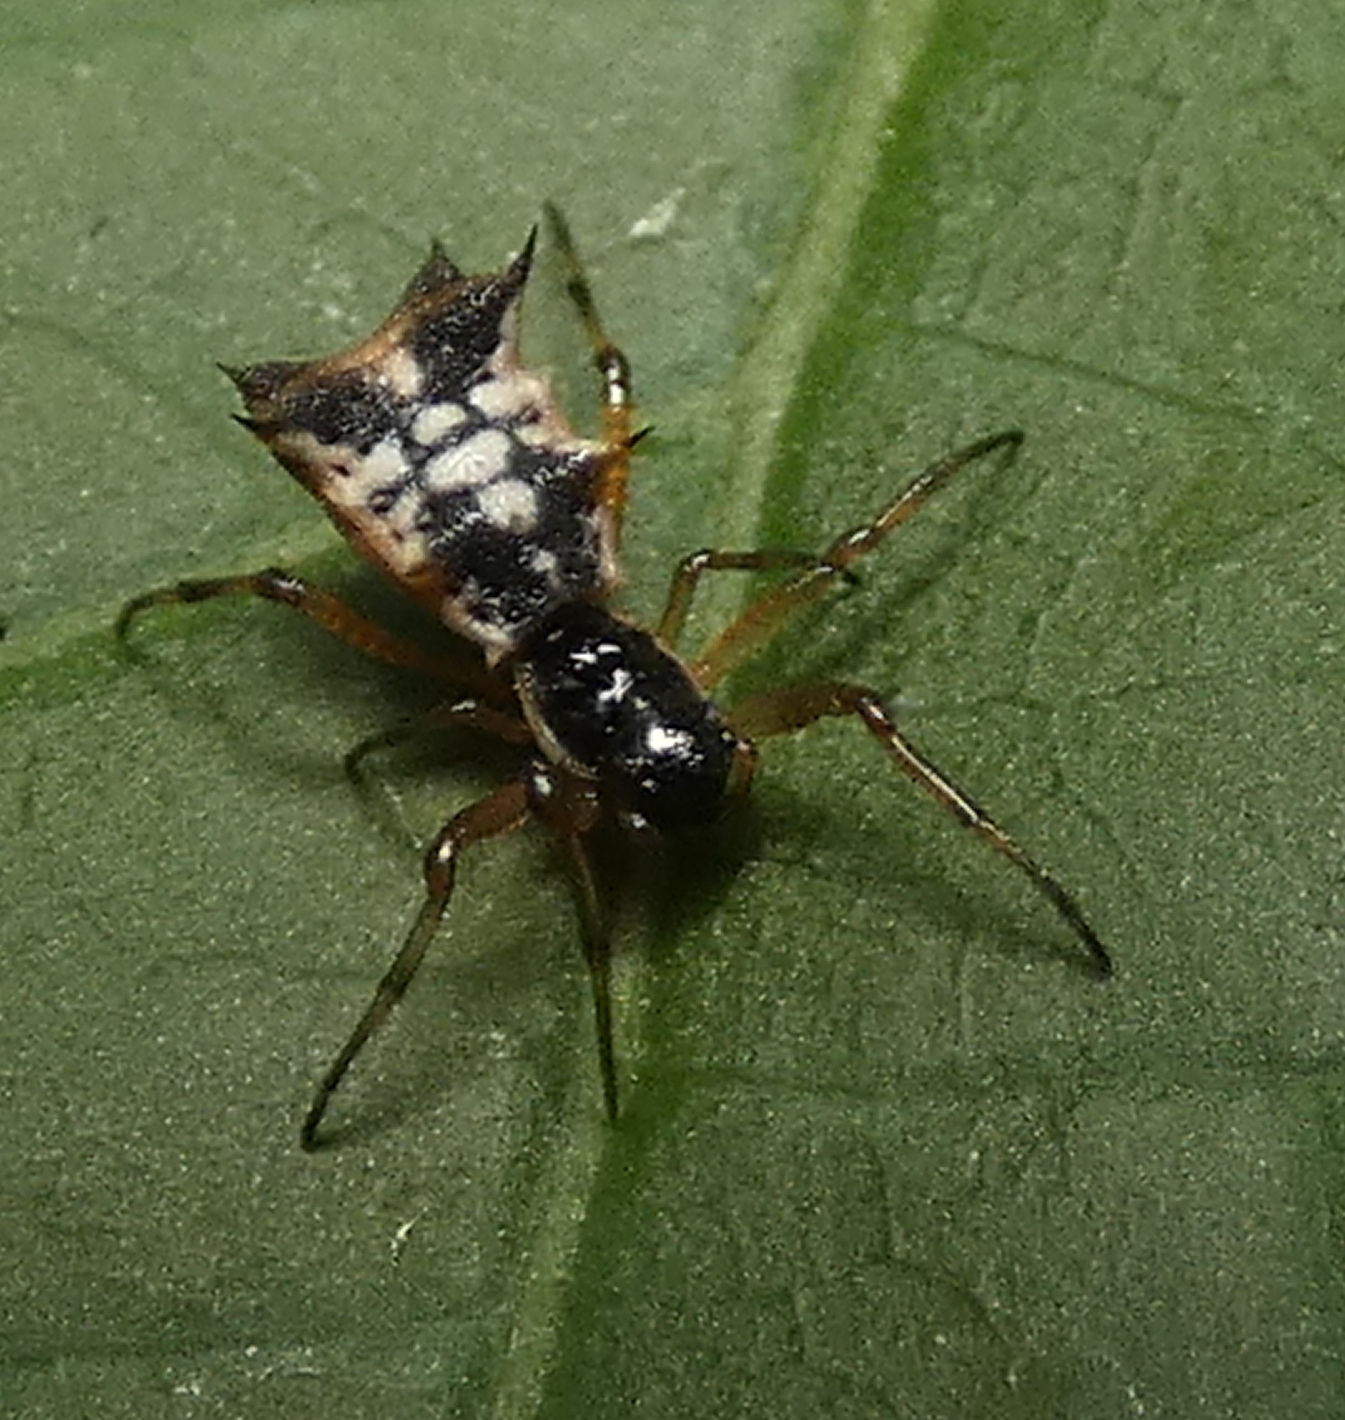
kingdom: Animalia
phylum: Arthropoda
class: Arachnida
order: Araneae
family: Araneidae
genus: Micrathena
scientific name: Micrathena picta
